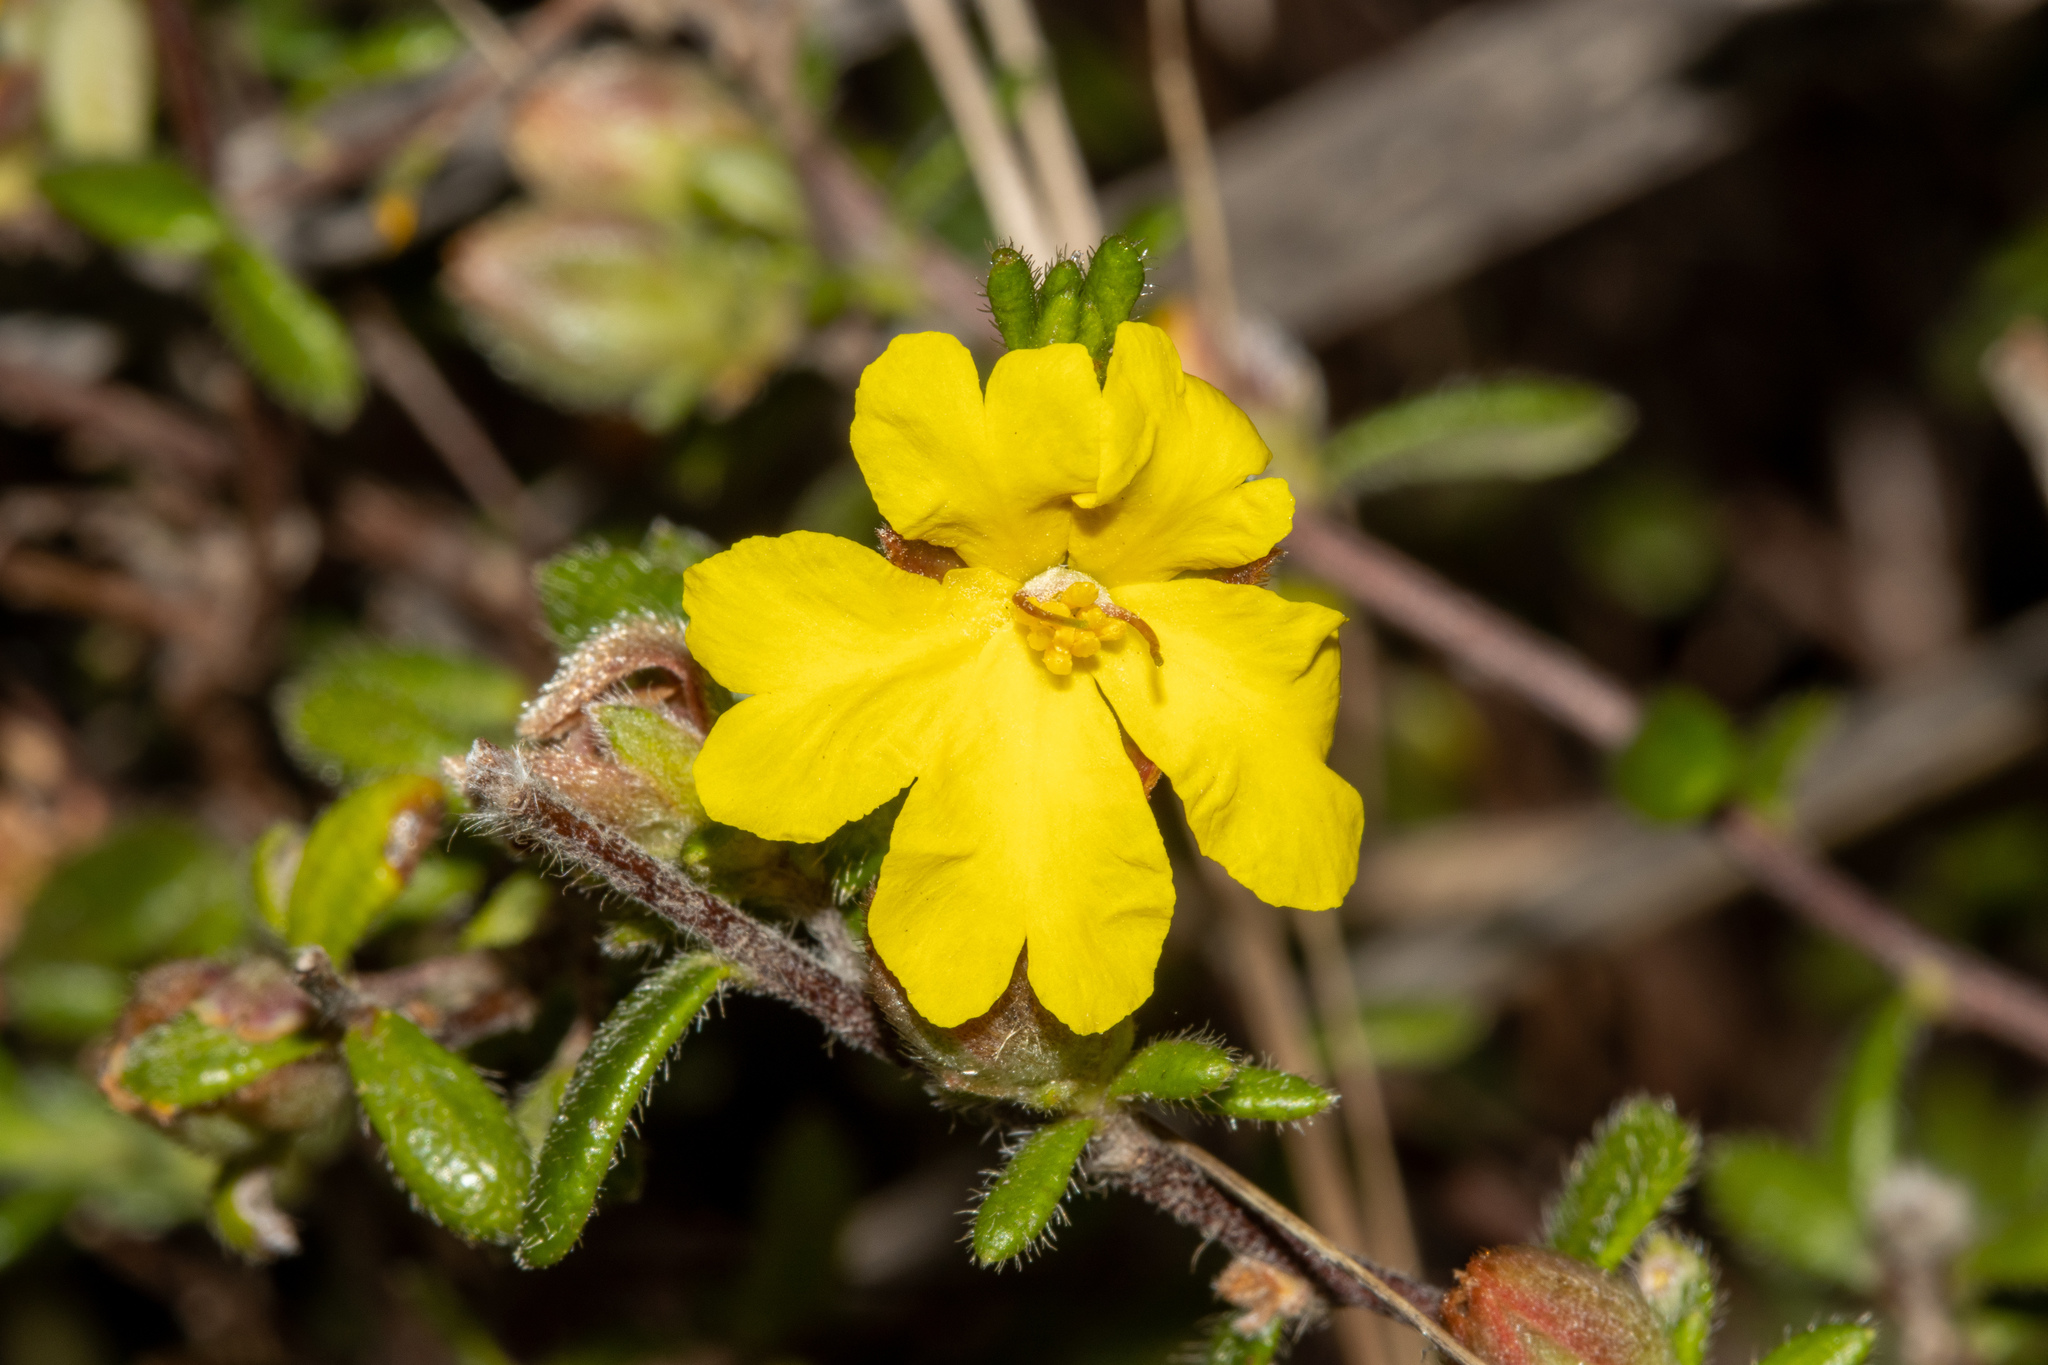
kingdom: Plantae
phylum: Tracheophyta
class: Magnoliopsida
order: Dilleniales
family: Dilleniaceae
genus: Hibbertia
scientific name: Hibbertia sericea
